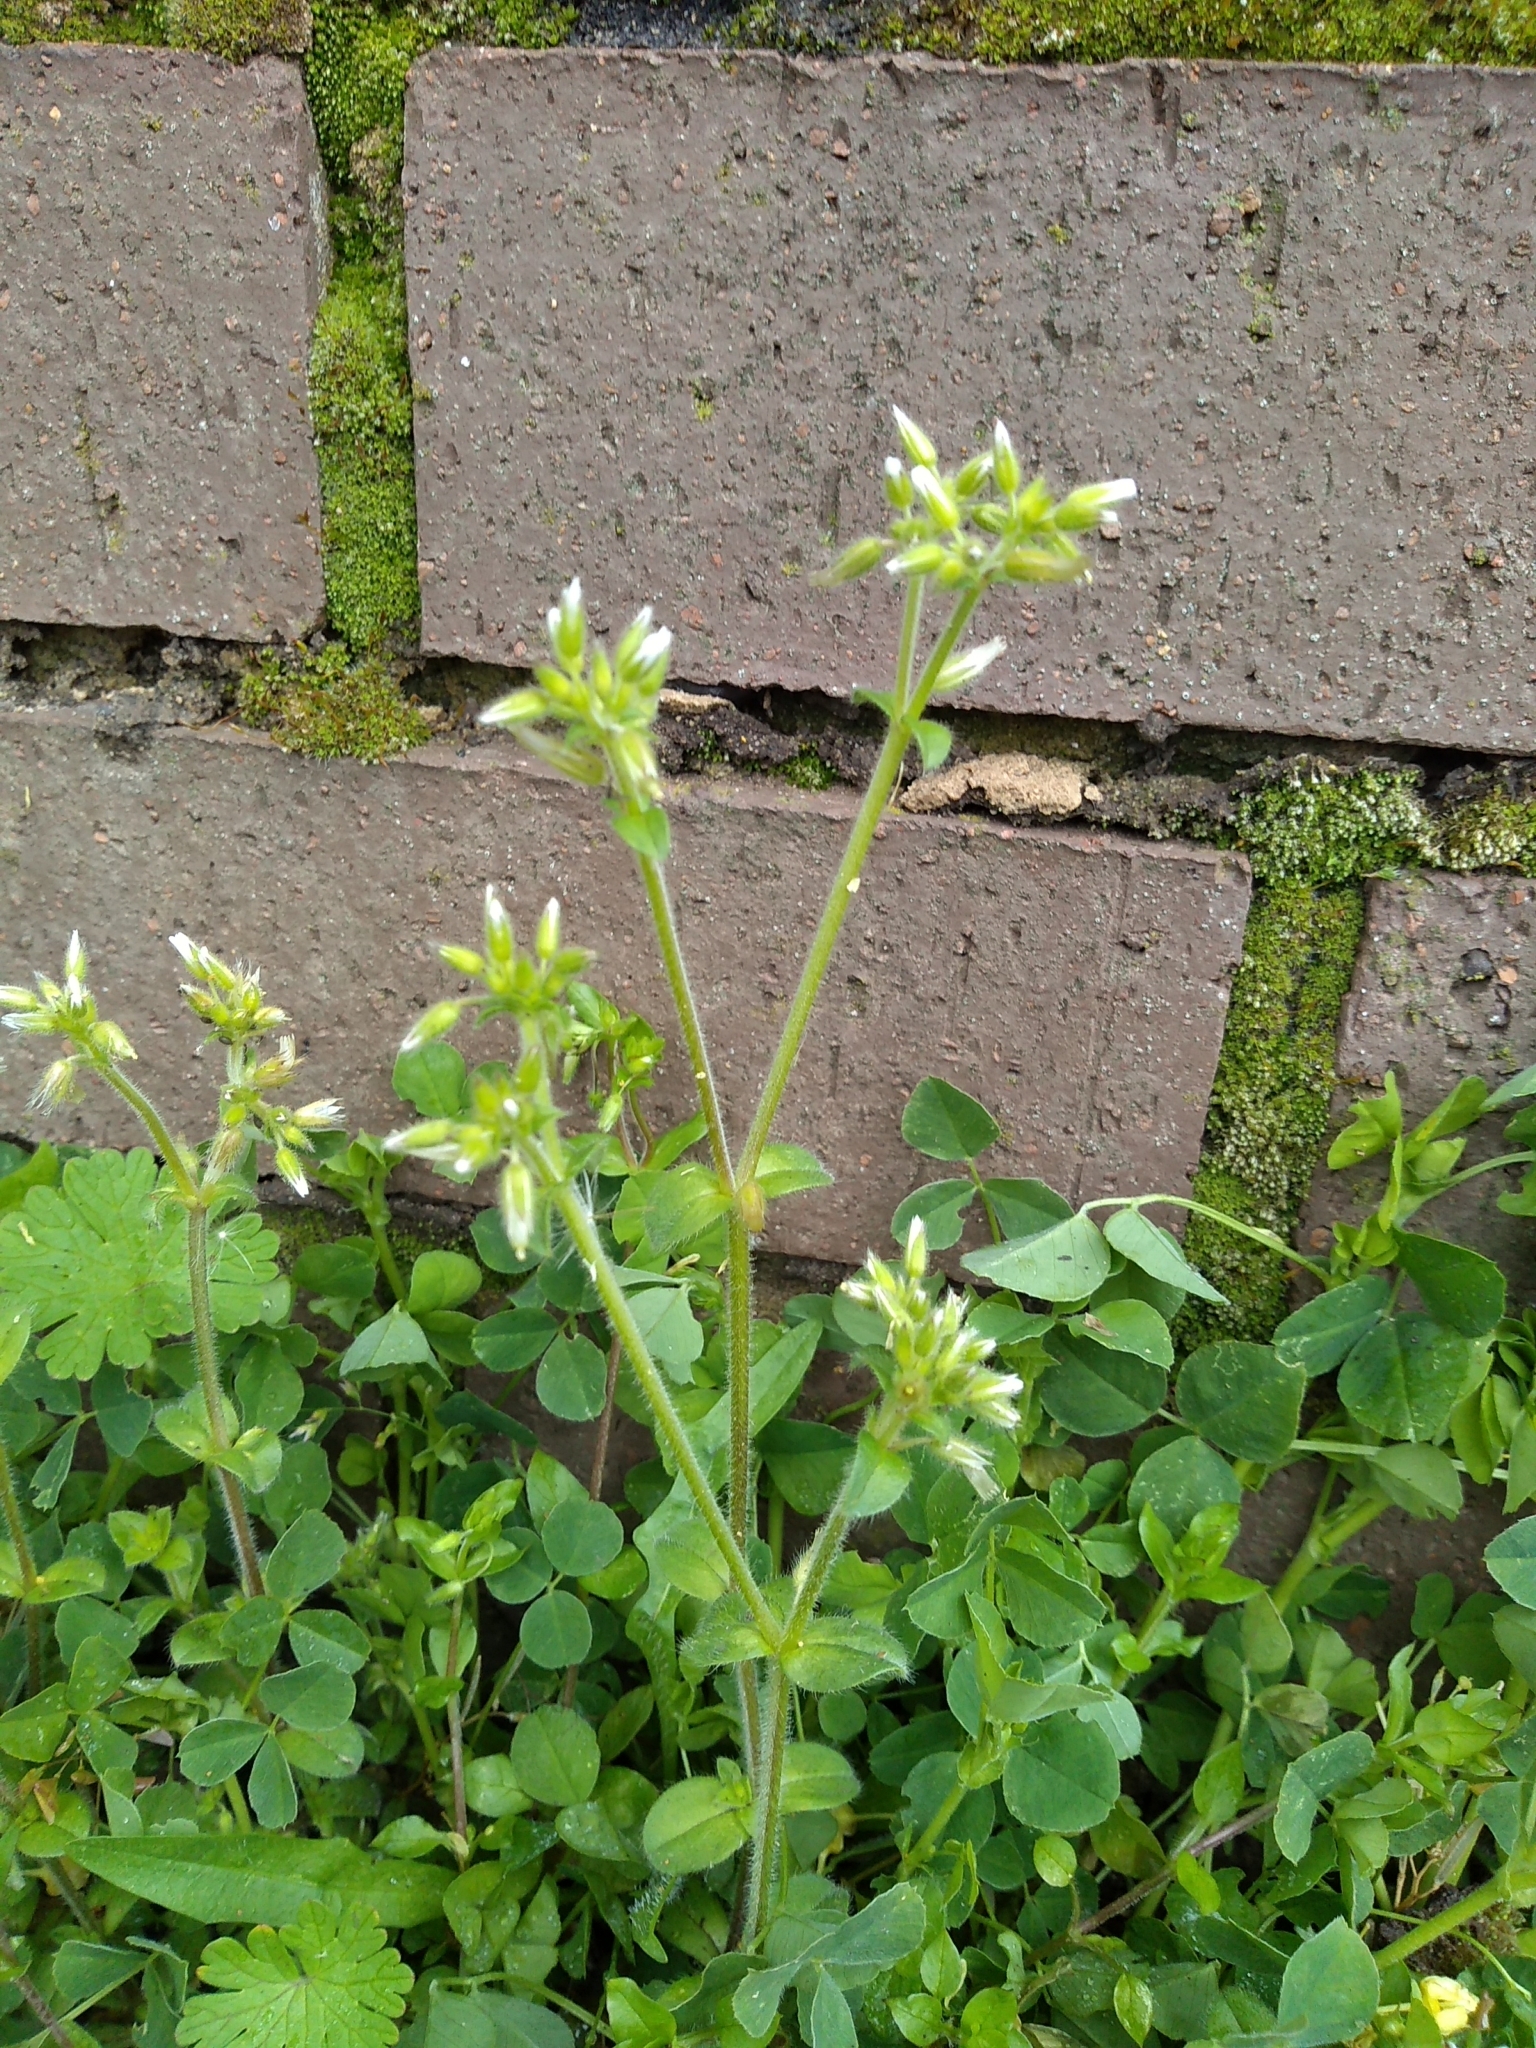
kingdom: Plantae
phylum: Tracheophyta
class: Magnoliopsida
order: Caryophyllales
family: Caryophyllaceae
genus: Cerastium
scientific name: Cerastium glomeratum
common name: Sticky chickweed
